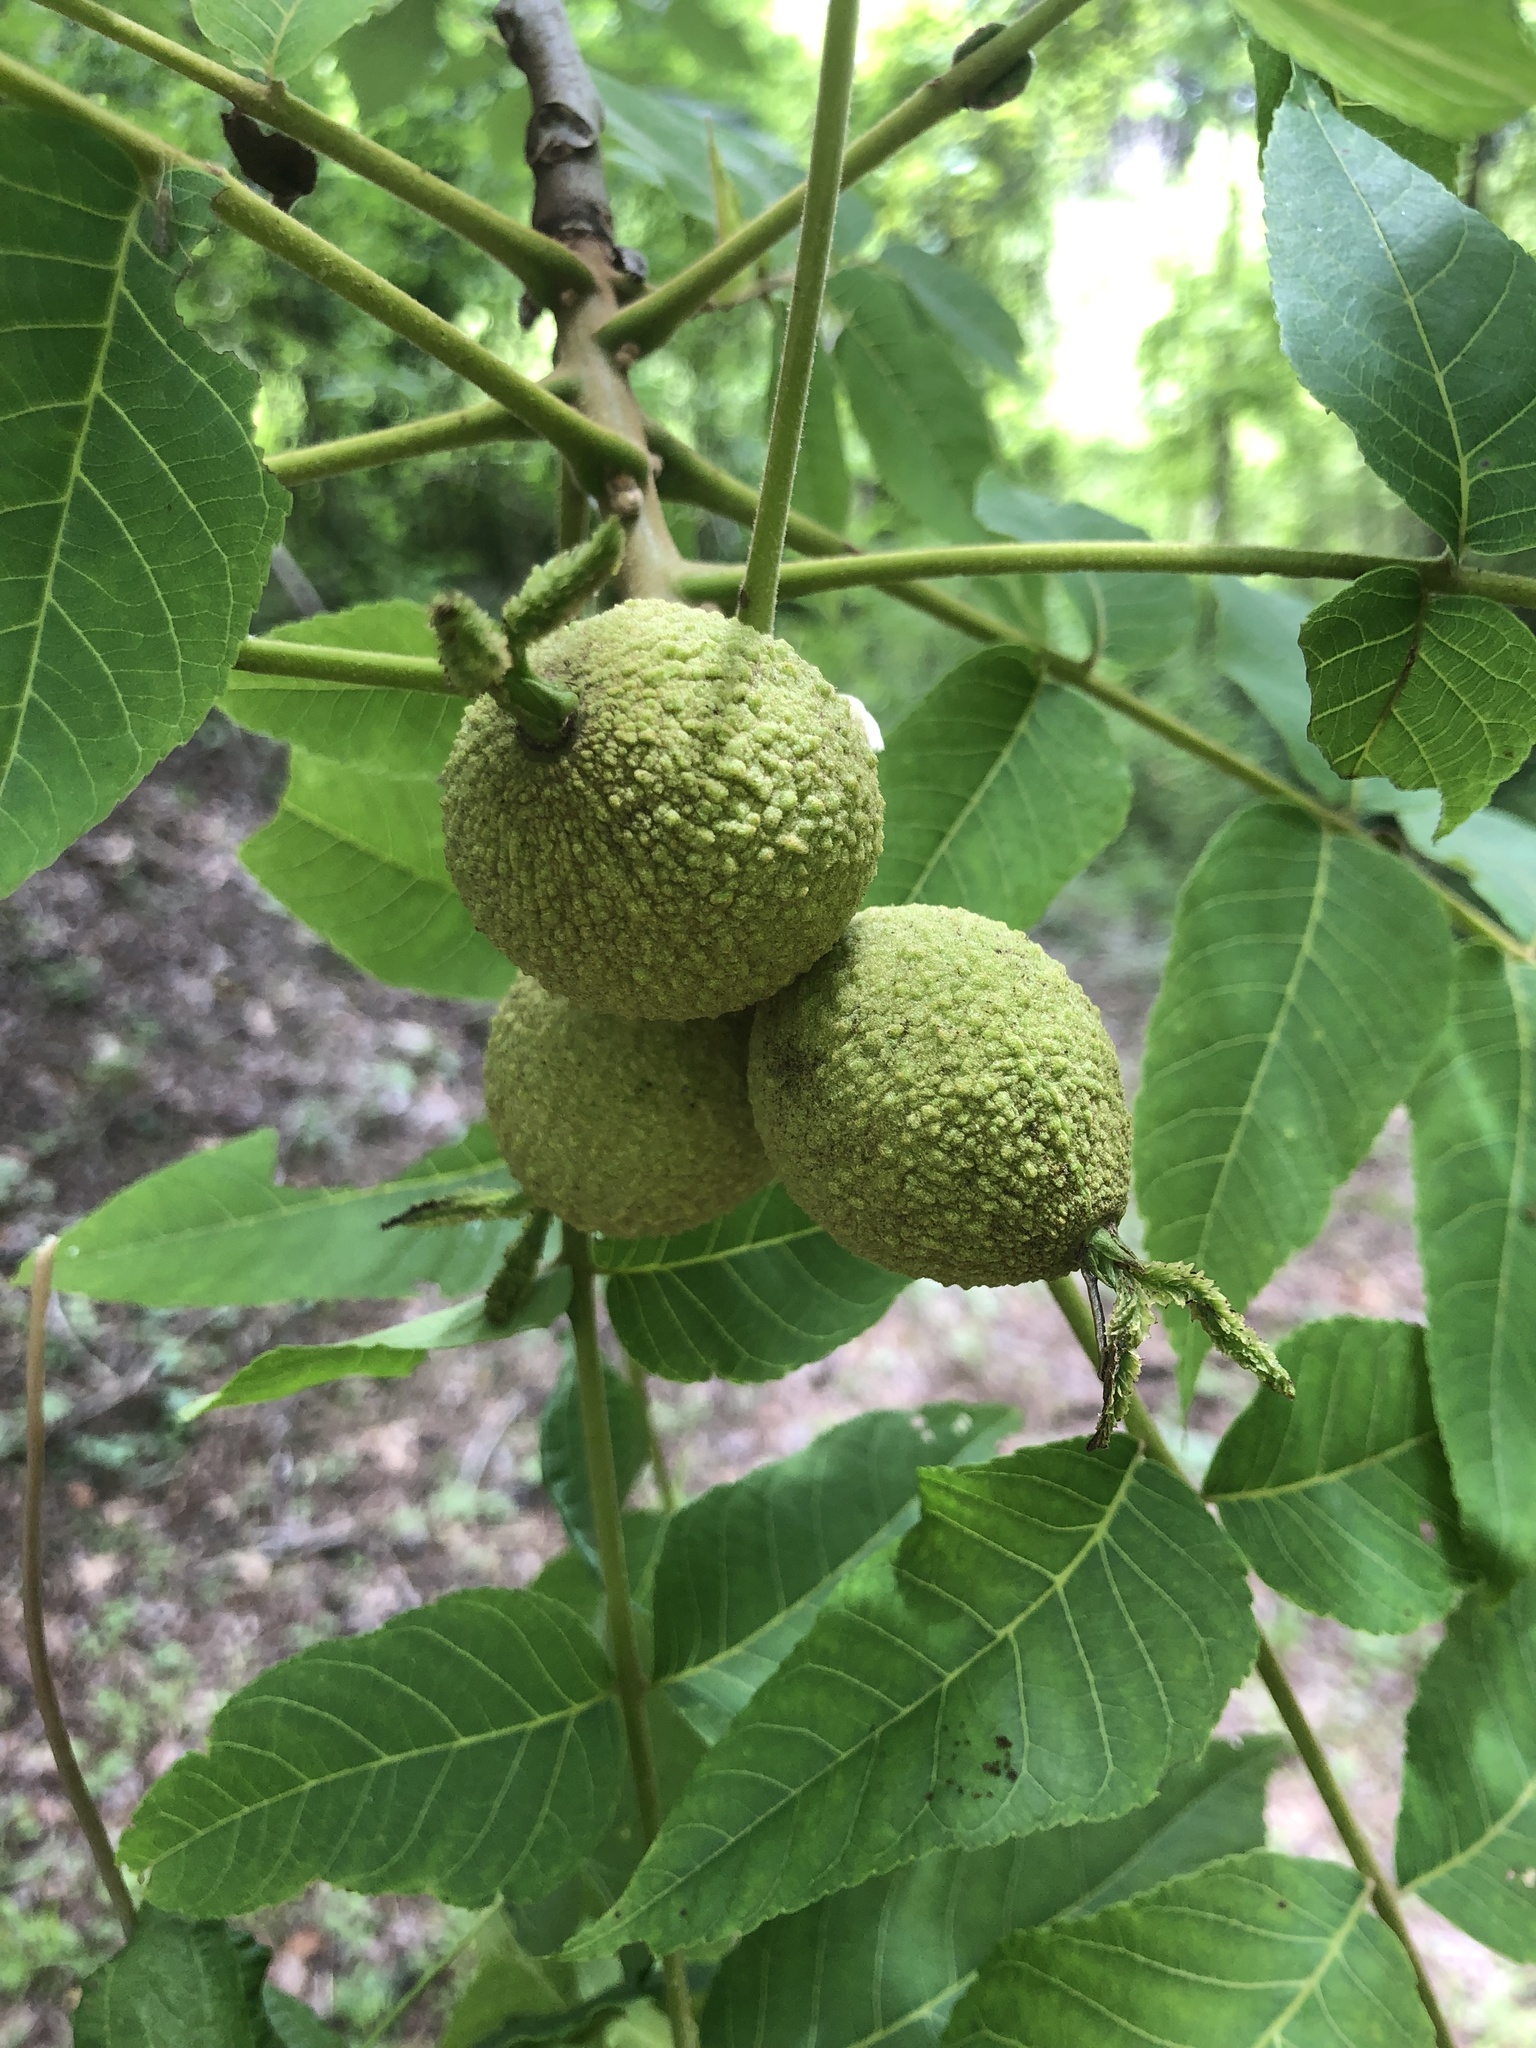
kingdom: Plantae
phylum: Tracheophyta
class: Magnoliopsida
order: Fagales
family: Juglandaceae
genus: Juglans
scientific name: Juglans nigra
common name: Black walnut
